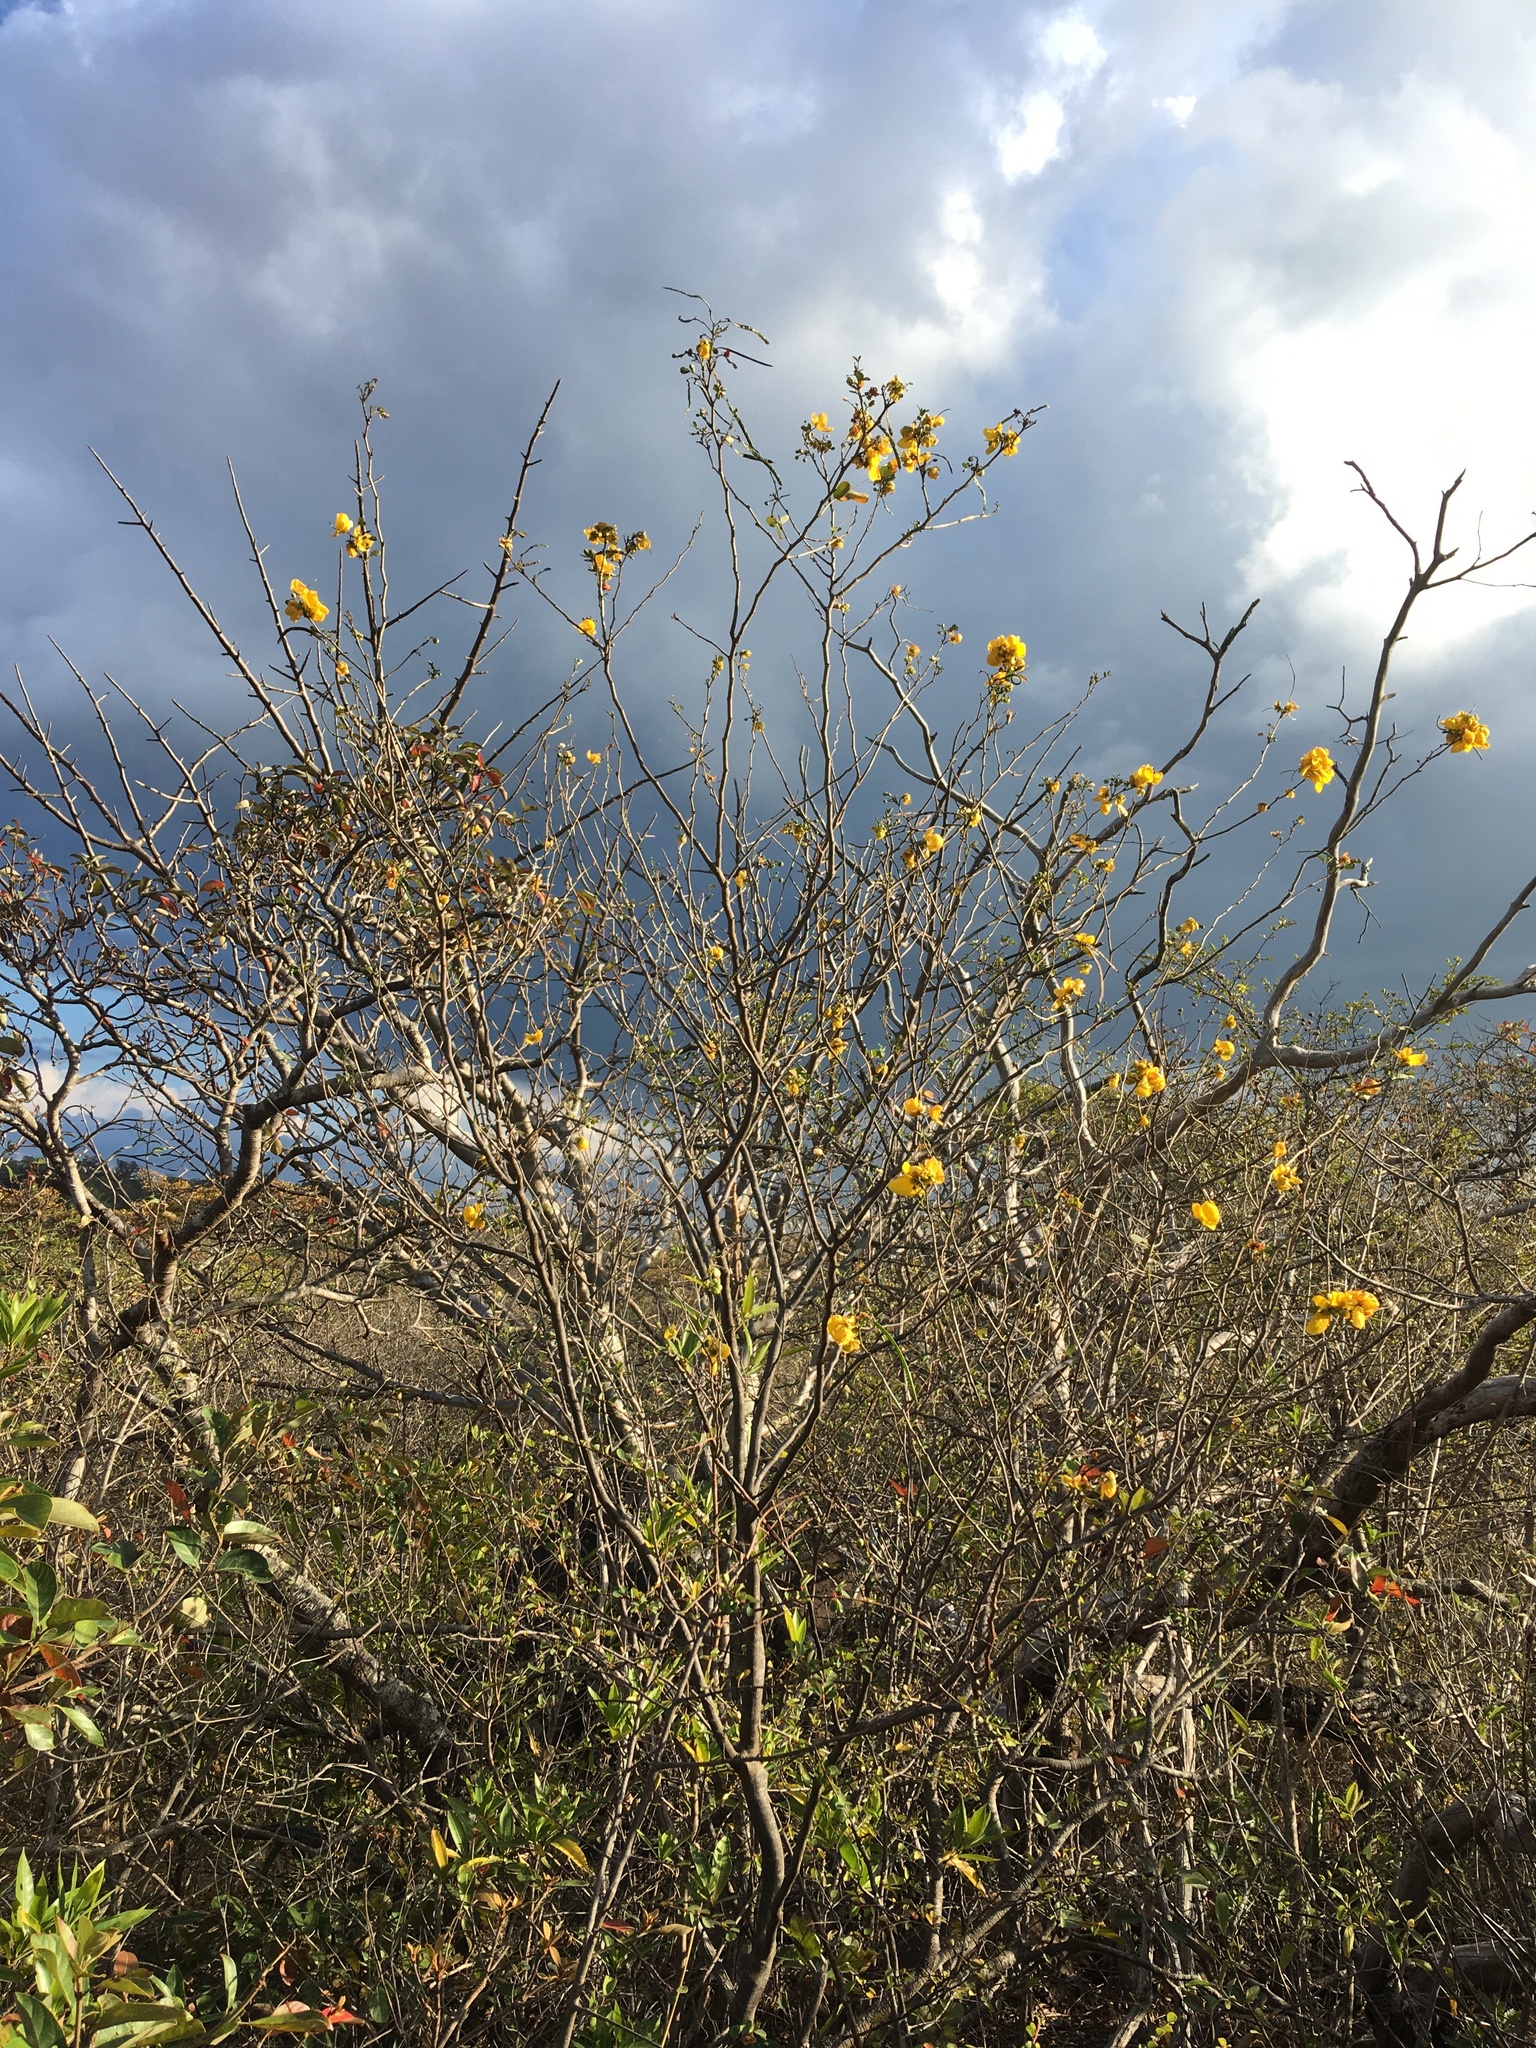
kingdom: Plantae
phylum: Tracheophyta
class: Magnoliopsida
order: Fabales
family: Fabaceae
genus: Senna
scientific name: Senna pallida
